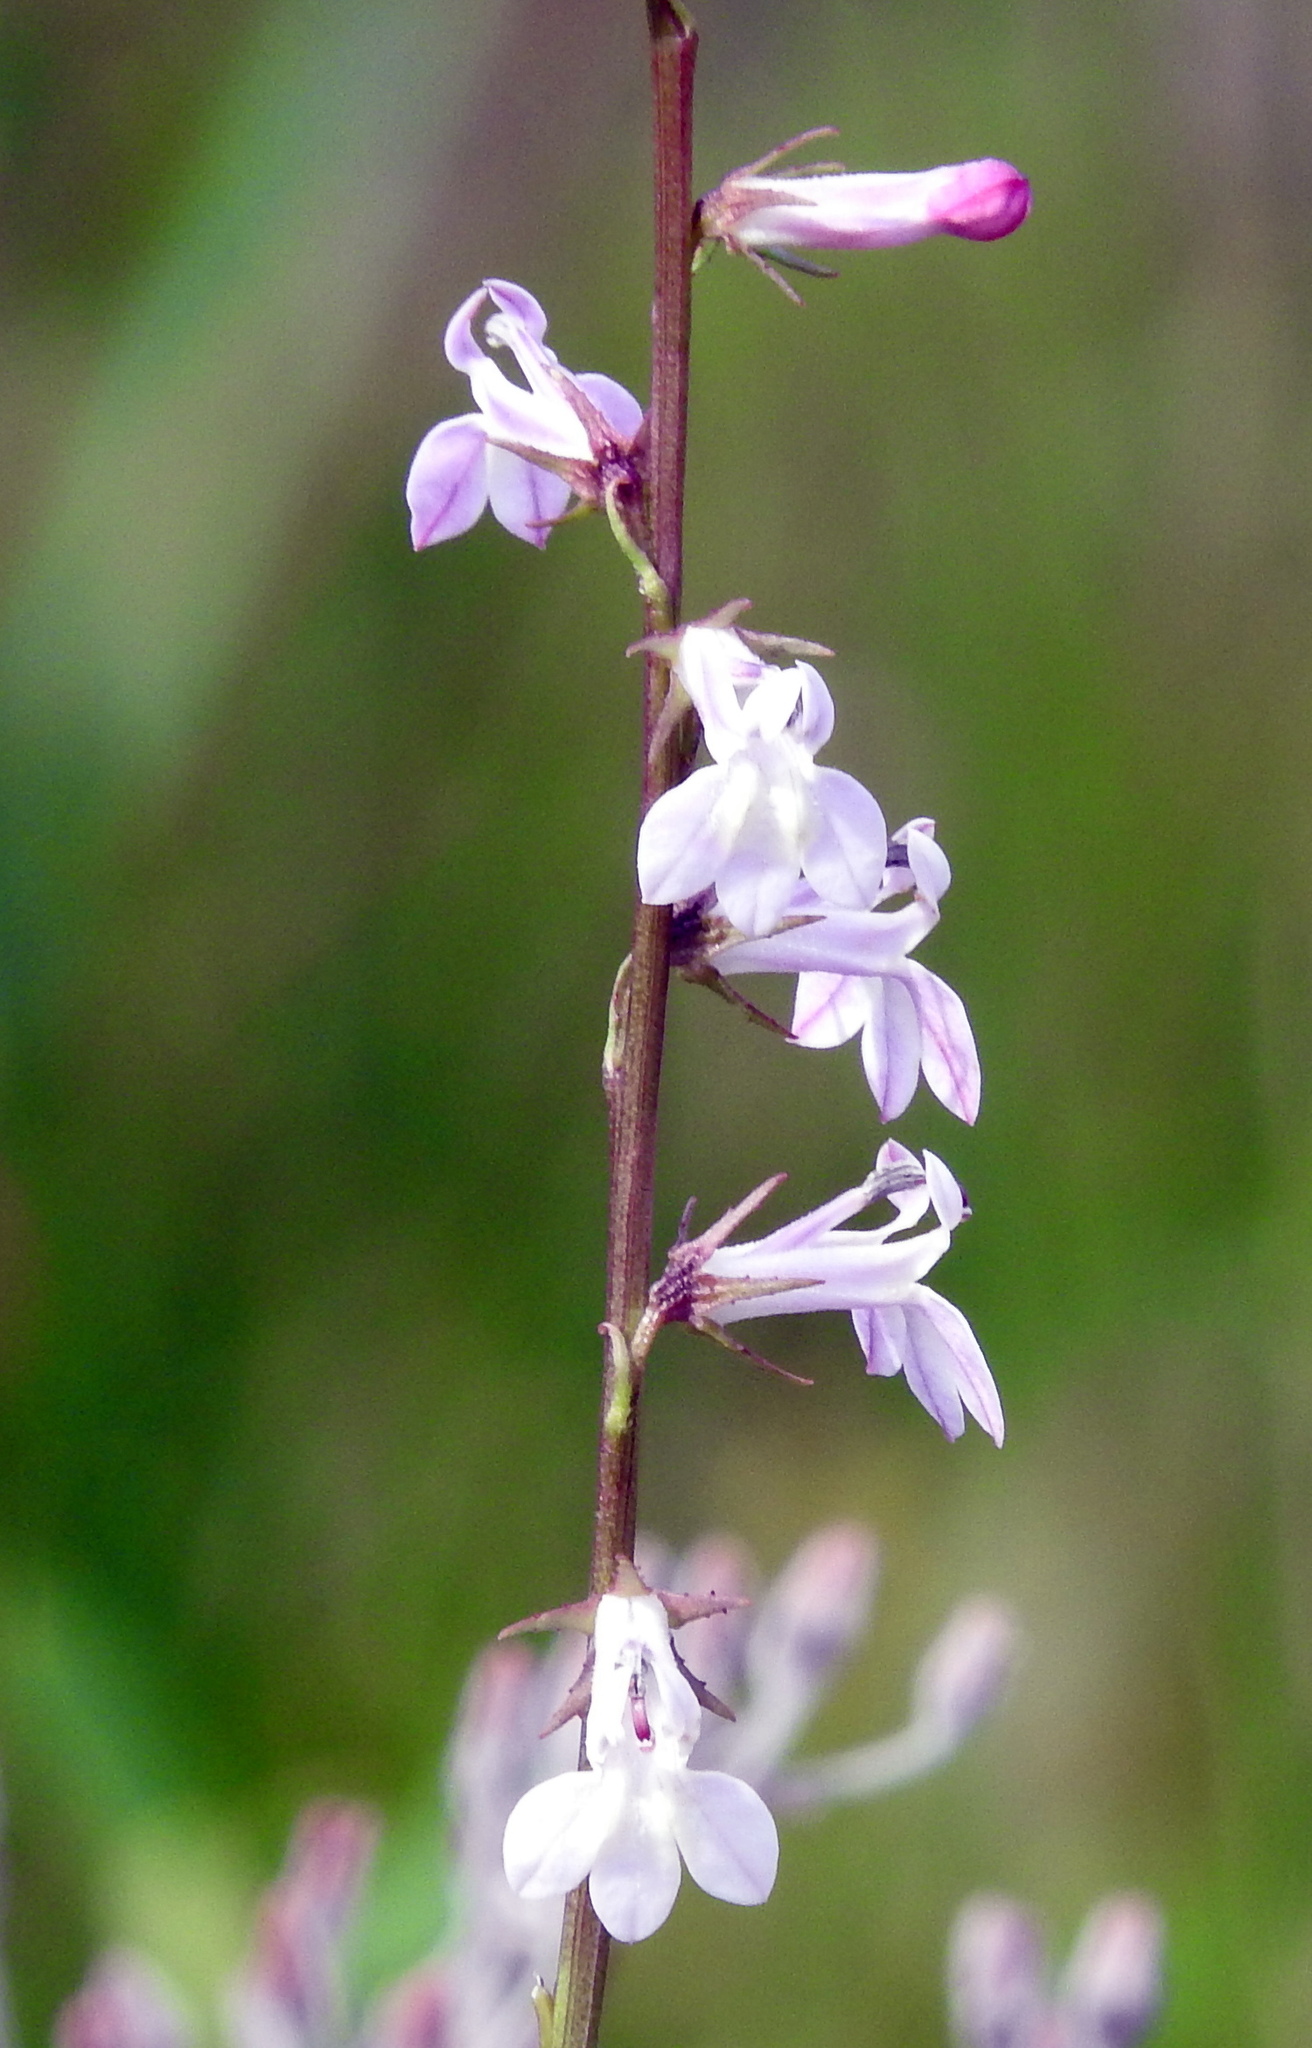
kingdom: Plantae
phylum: Tracheophyta
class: Magnoliopsida
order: Asterales
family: Campanulaceae
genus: Lobelia
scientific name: Lobelia floridana
